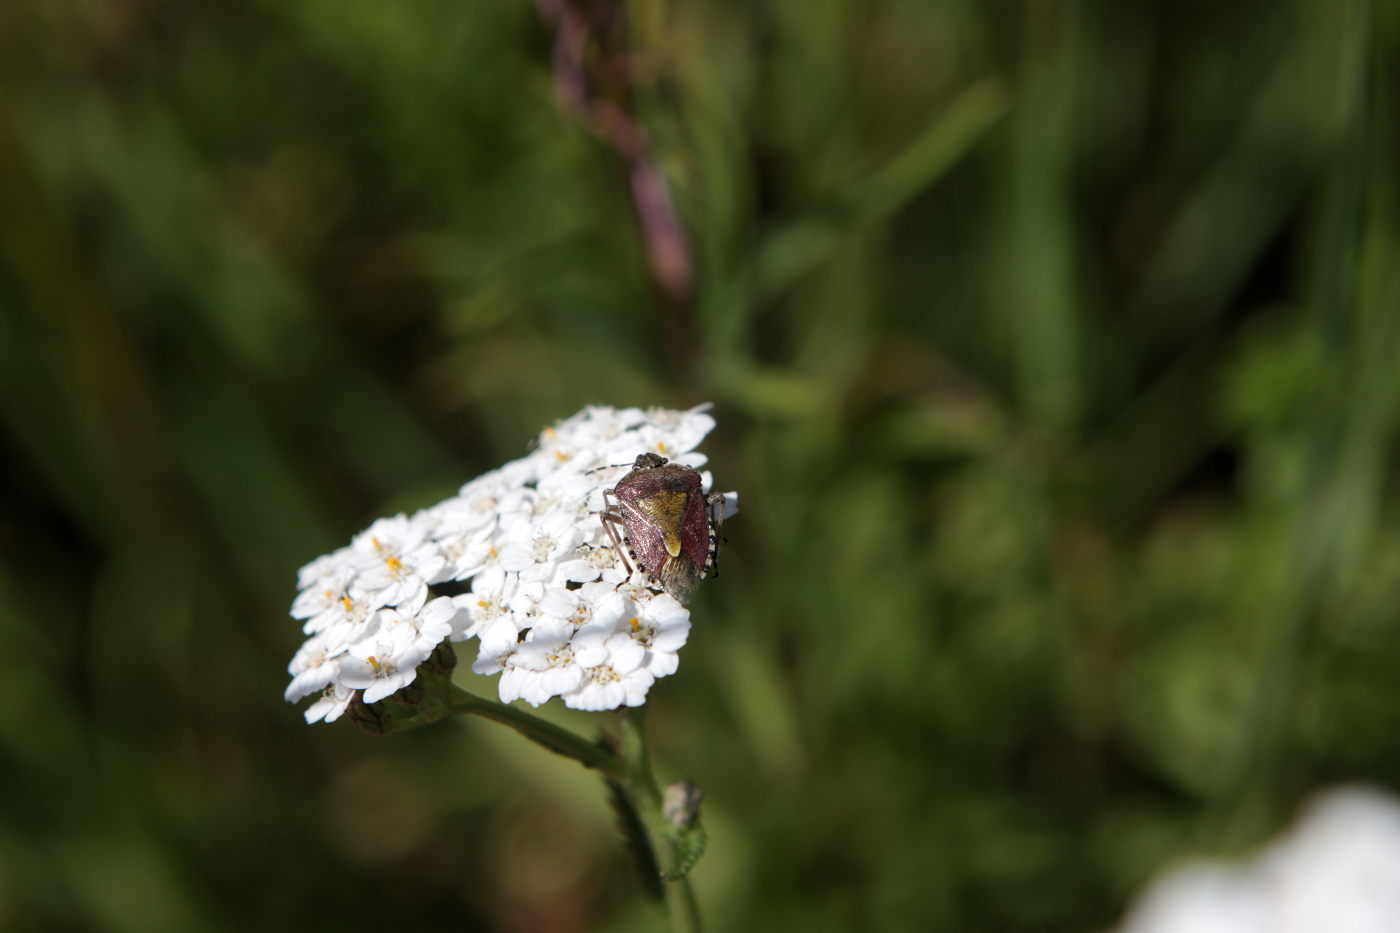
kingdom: Animalia
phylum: Arthropoda
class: Insecta
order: Hemiptera
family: Pentatomidae
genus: Dolycoris
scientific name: Dolycoris baccarum
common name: Sloe bug
